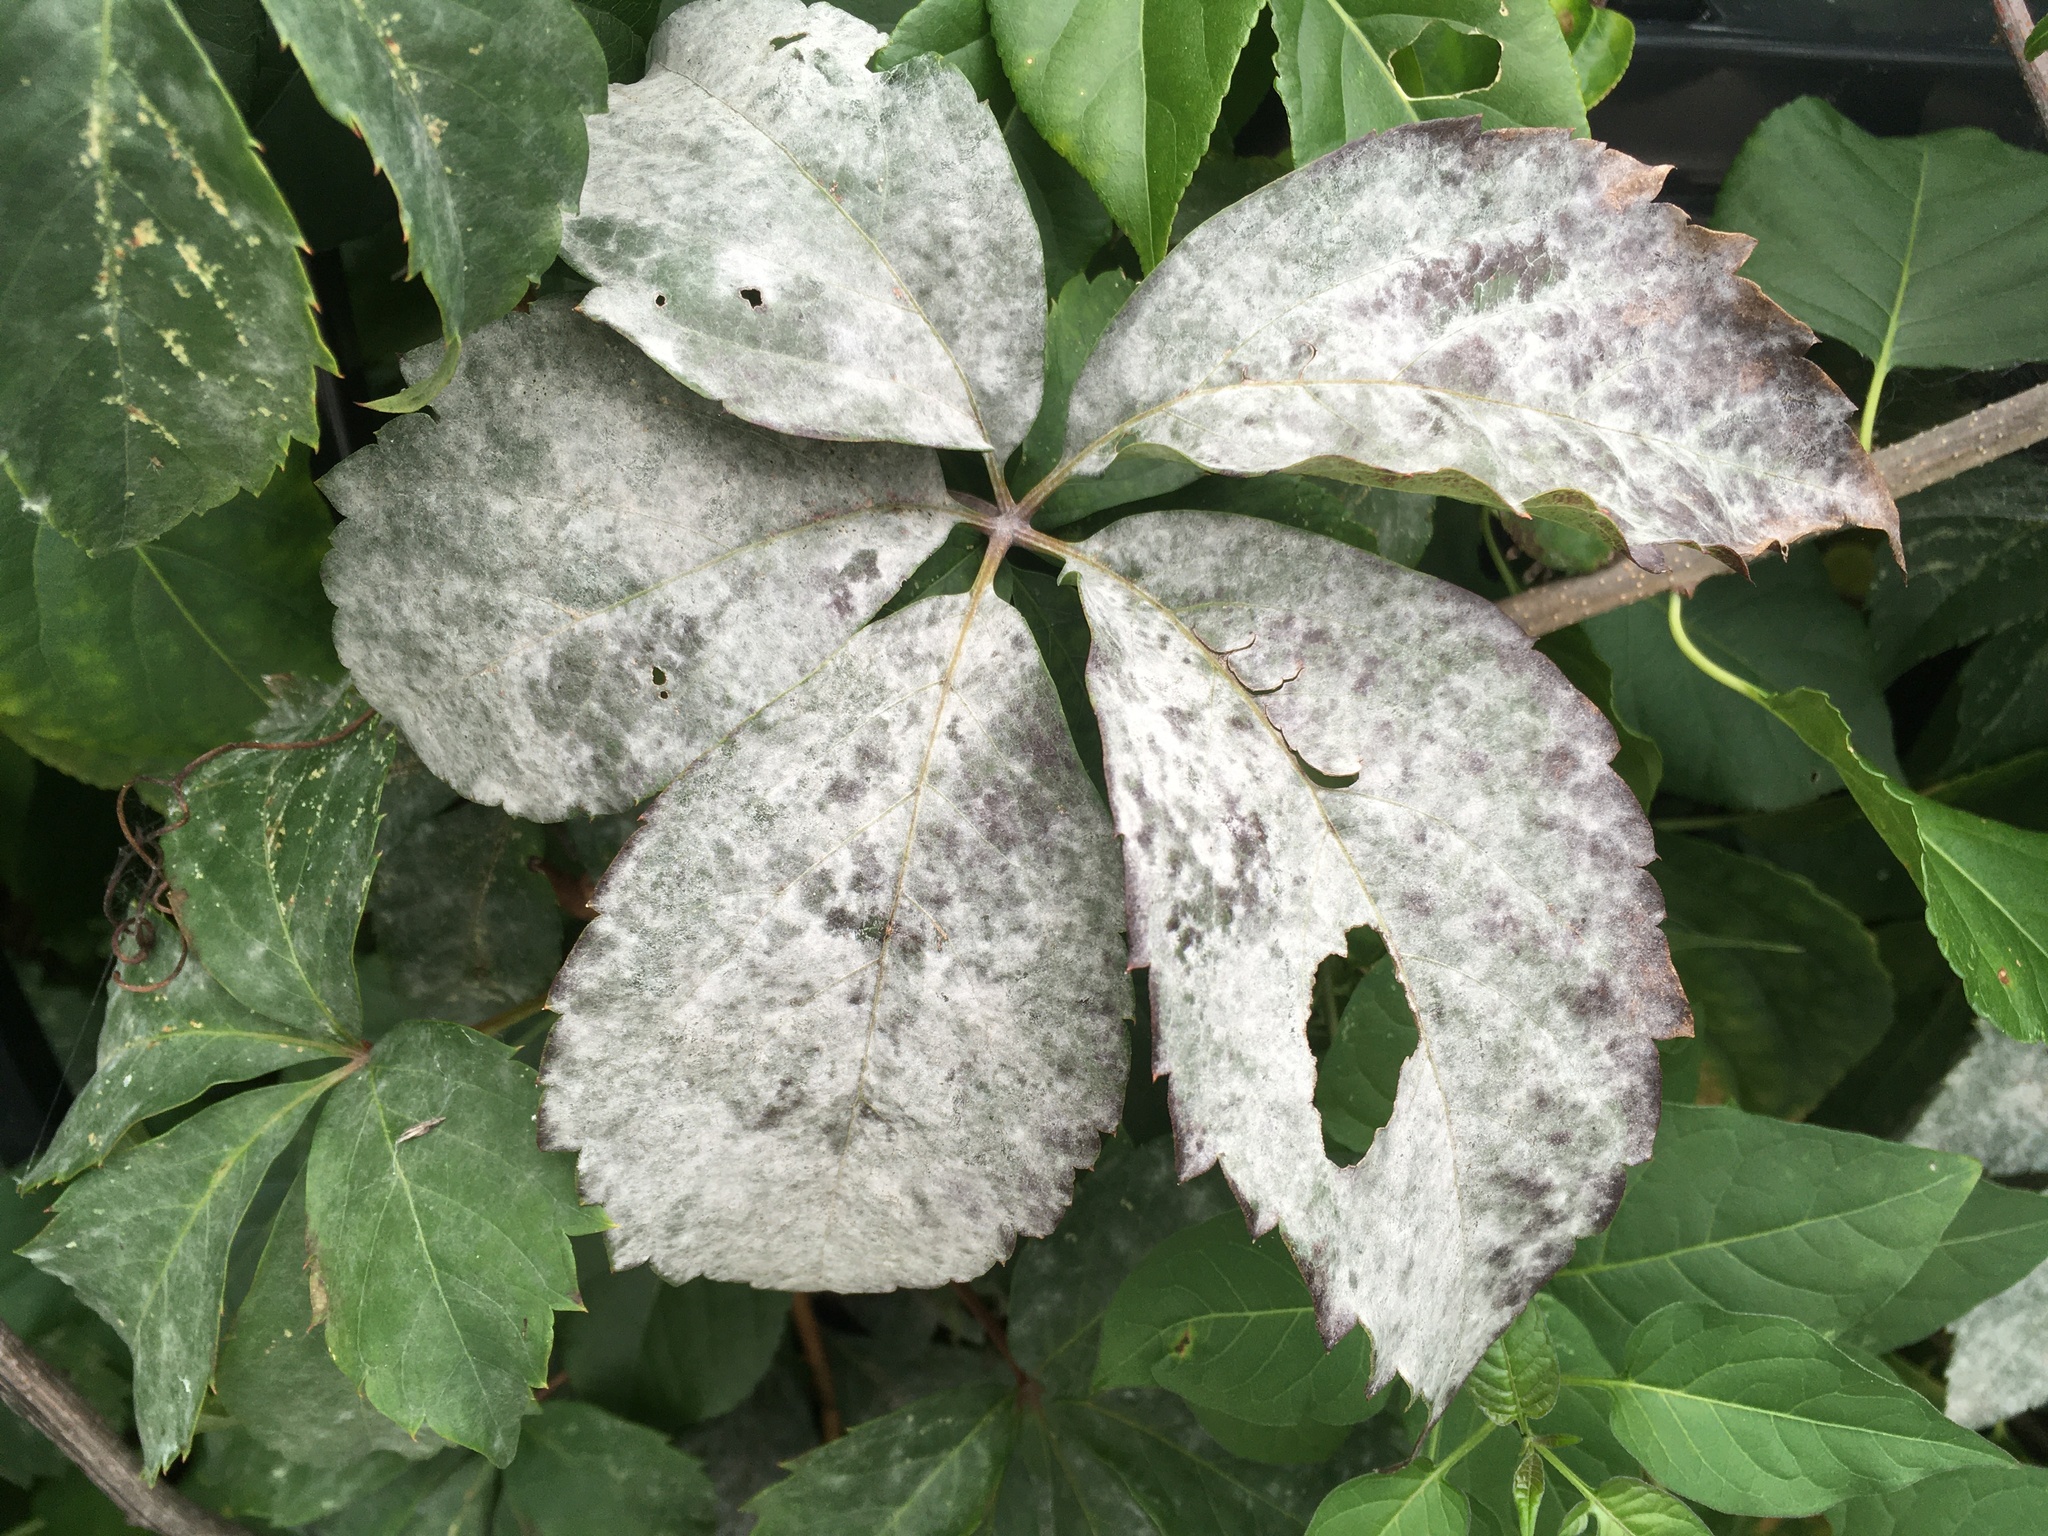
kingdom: Fungi
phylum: Ascomycota
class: Leotiomycetes
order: Helotiales
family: Erysiphaceae
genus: Erysiphe
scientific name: Erysiphe
